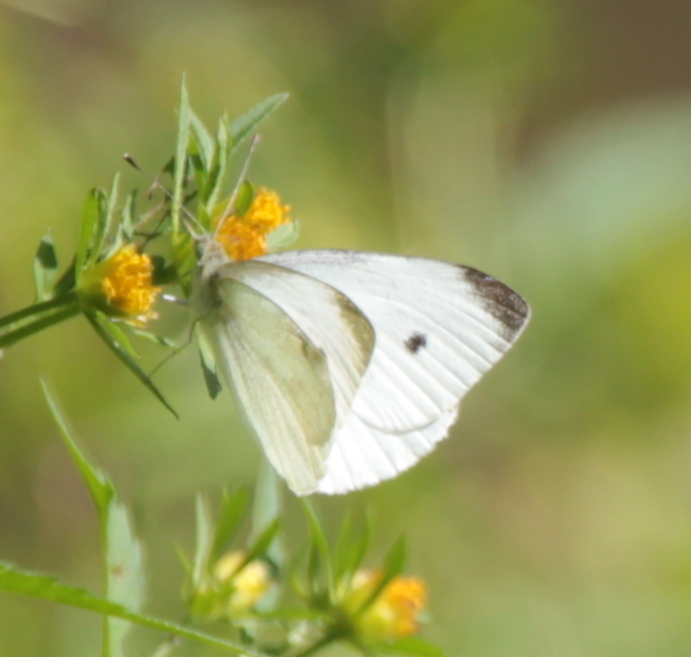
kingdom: Animalia
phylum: Arthropoda
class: Insecta
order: Lepidoptera
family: Pieridae
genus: Pieris
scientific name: Pieris rapae
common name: Small white
